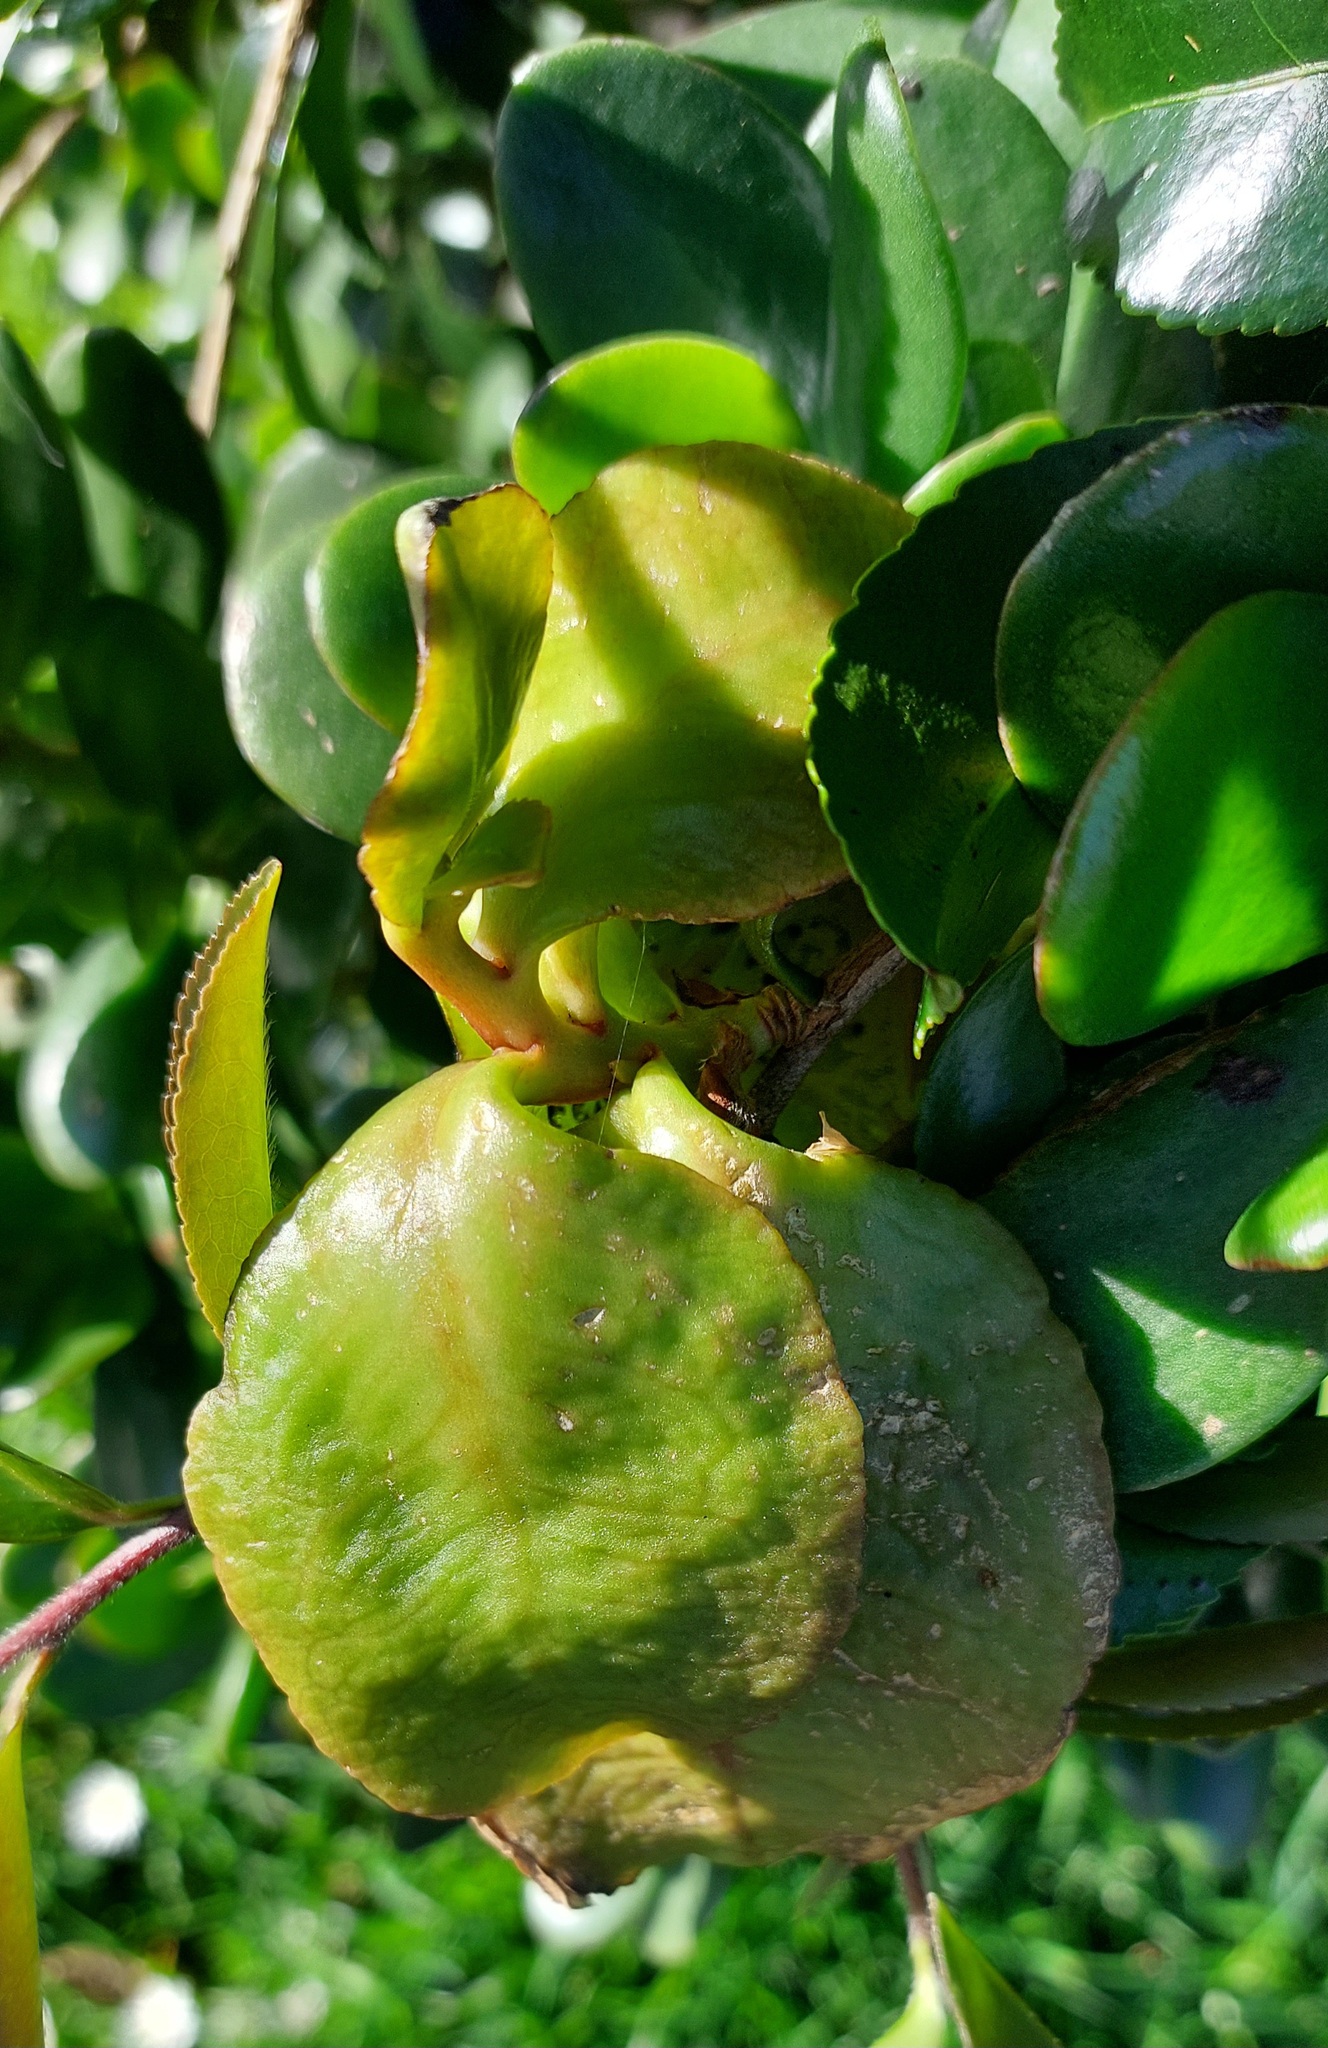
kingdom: Fungi
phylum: Basidiomycota
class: Exobasidiomycetes
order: Exobasidiales
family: Exobasidiaceae
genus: Exobasidium
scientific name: Exobasidium camelliae
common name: Camellia gall
